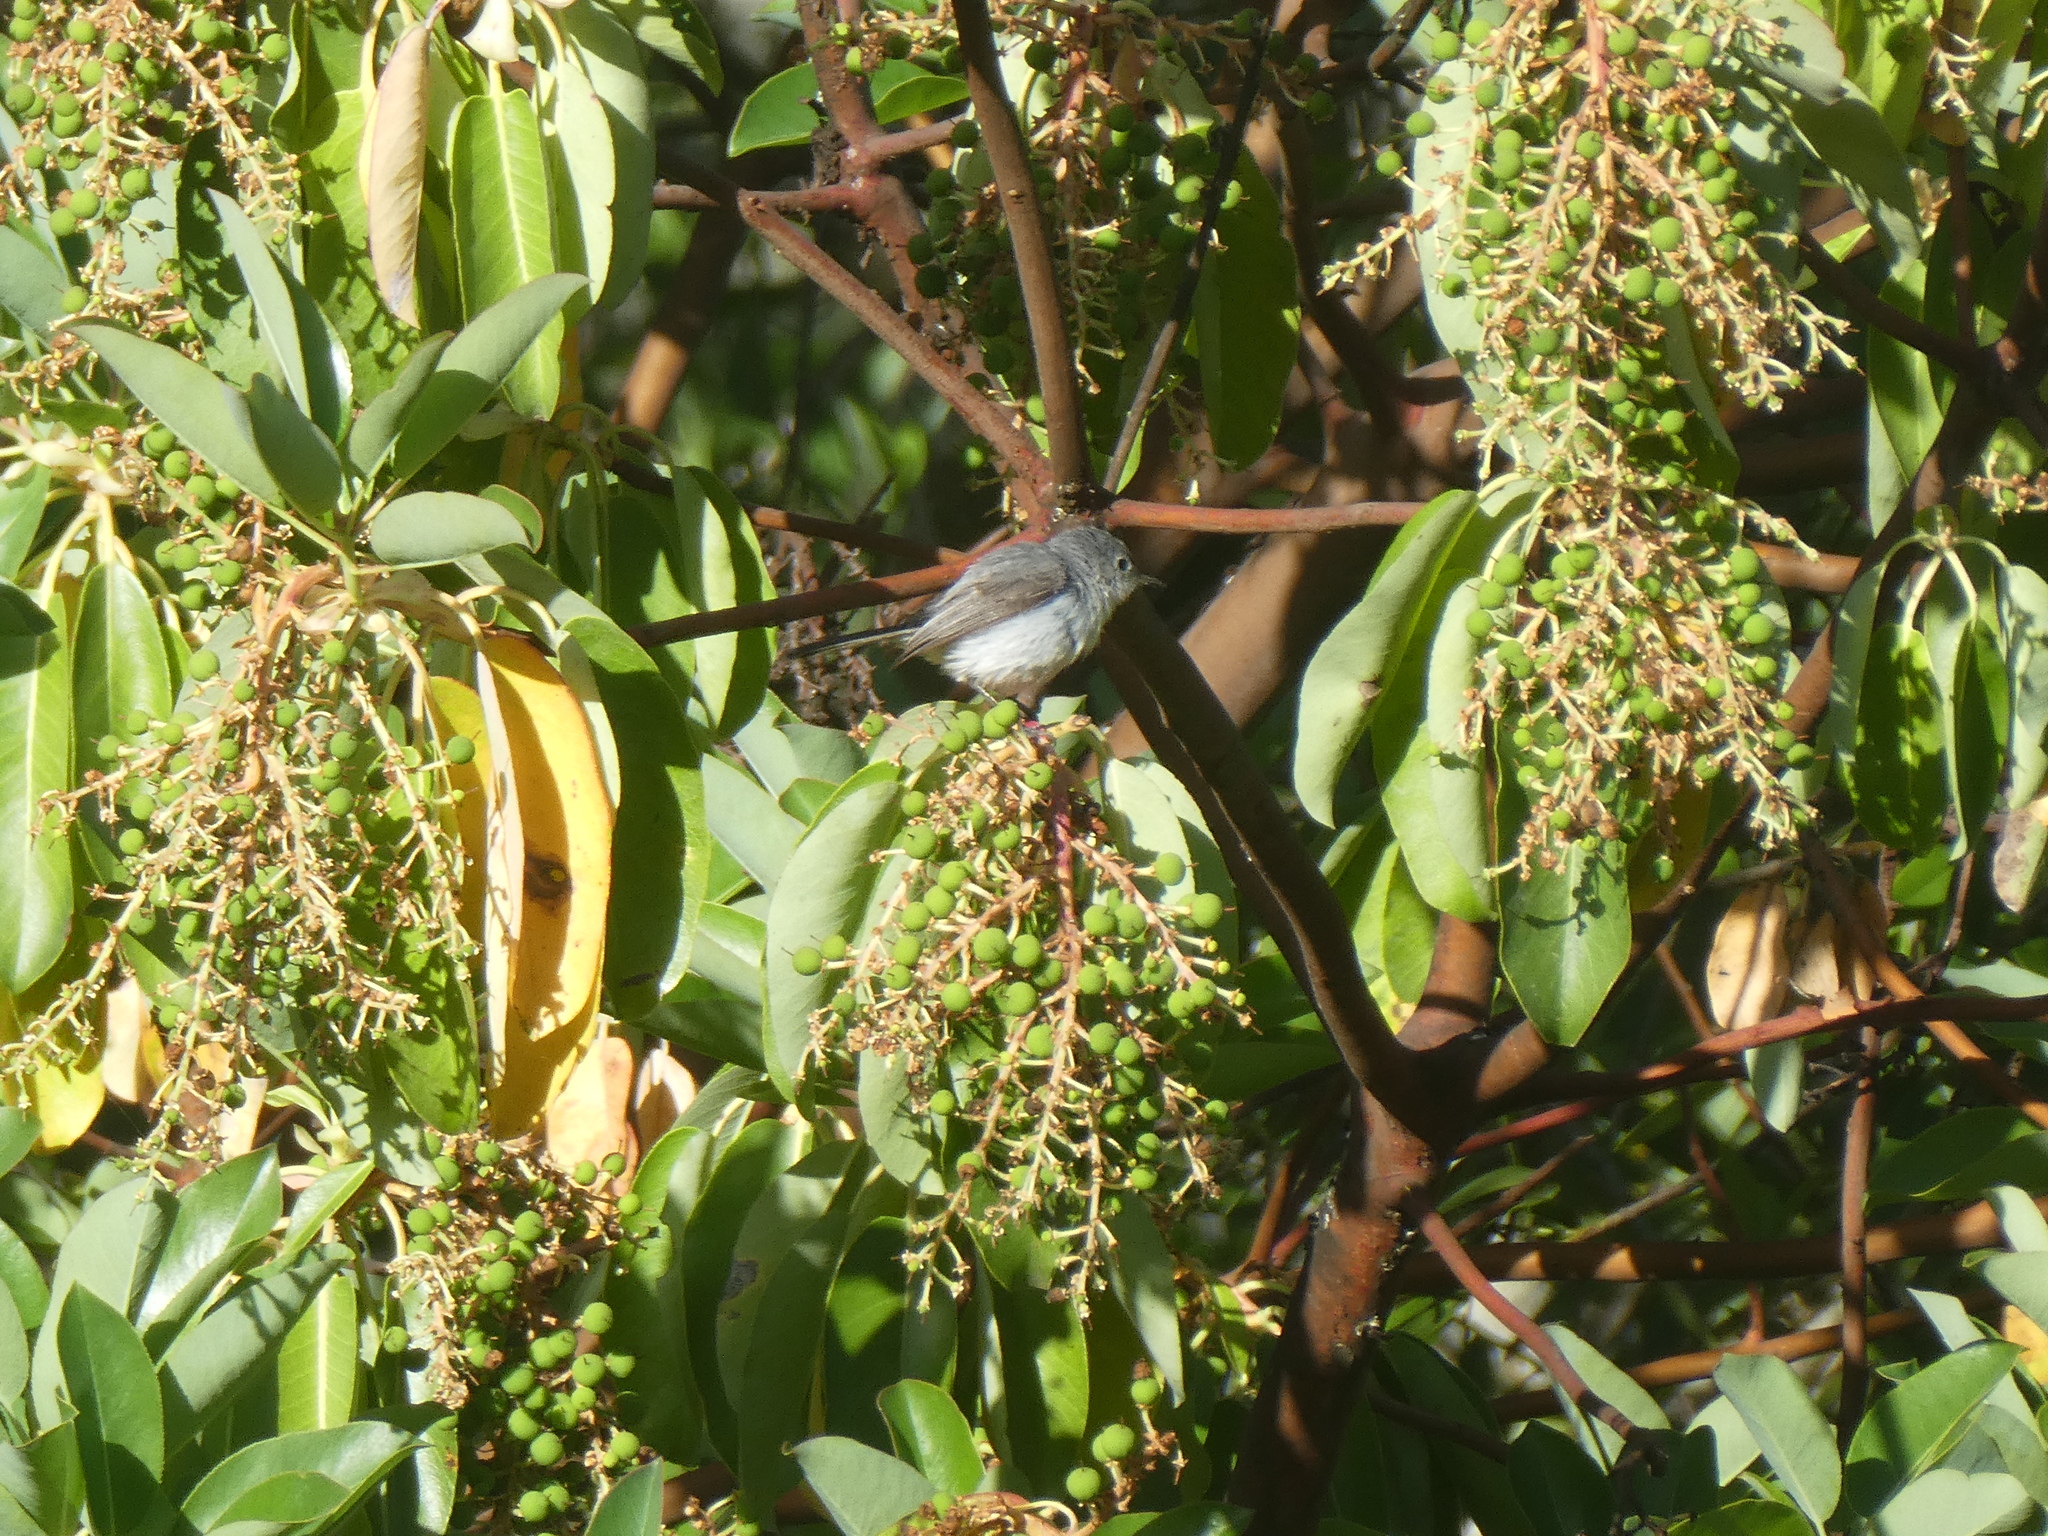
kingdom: Animalia
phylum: Chordata
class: Aves
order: Passeriformes
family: Polioptilidae
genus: Polioptila
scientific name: Polioptila caerulea
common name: Blue-gray gnatcatcher
